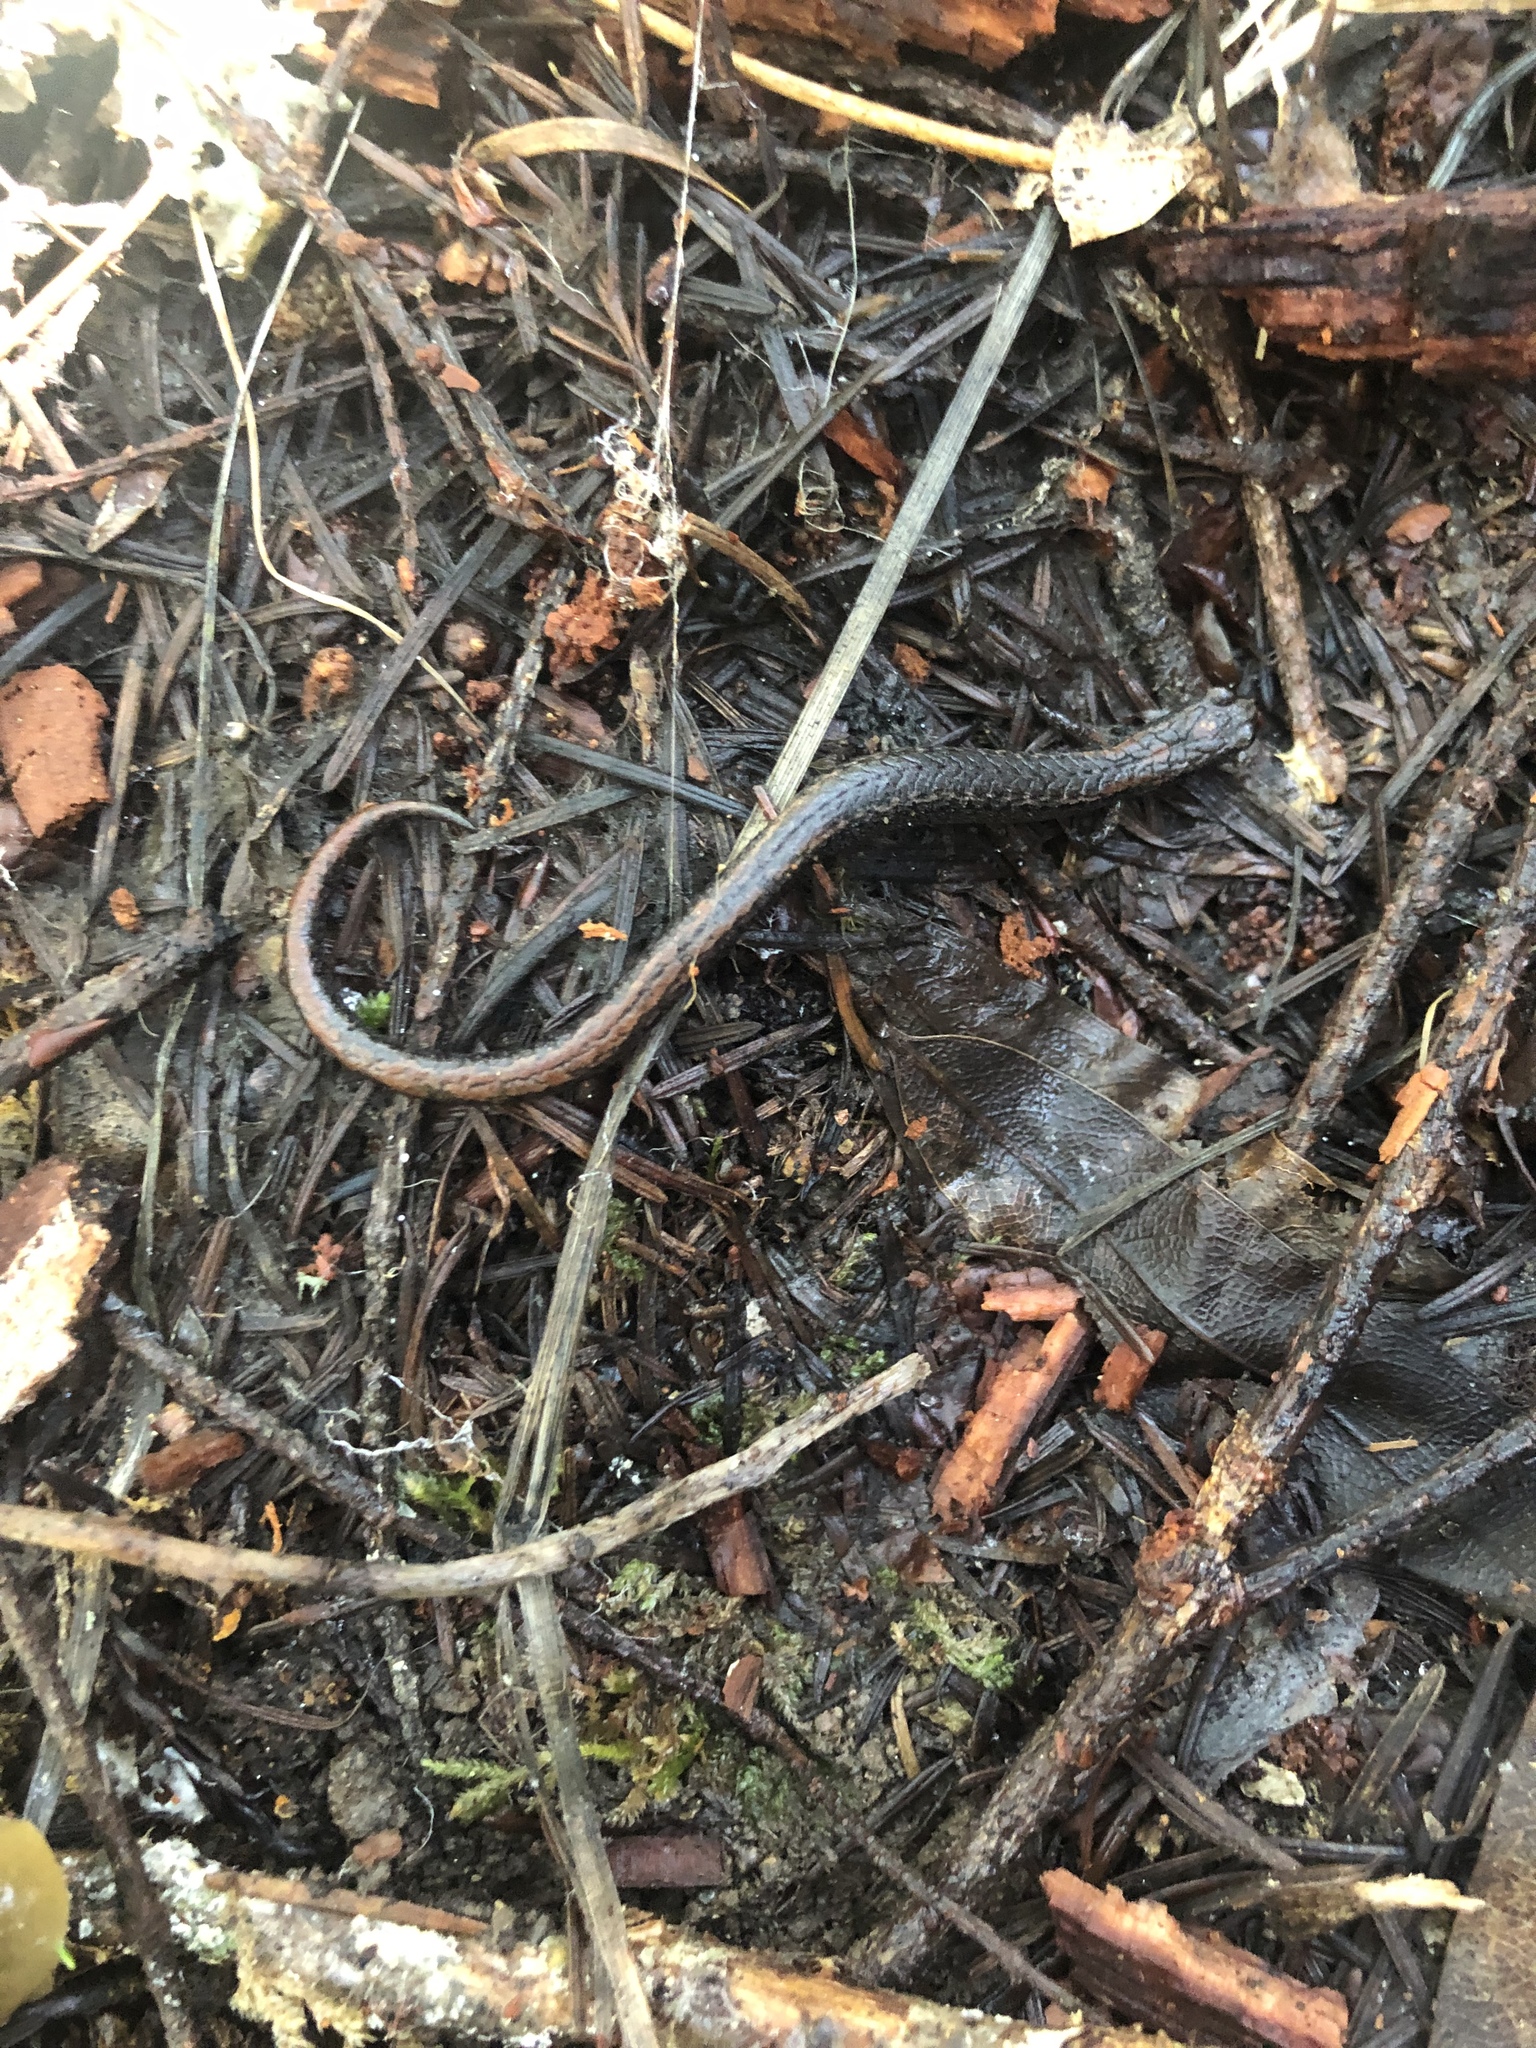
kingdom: Animalia
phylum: Chordata
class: Amphibia
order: Caudata
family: Plethodontidae
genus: Batrachoseps
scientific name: Batrachoseps attenuatus
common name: California slender salamander
